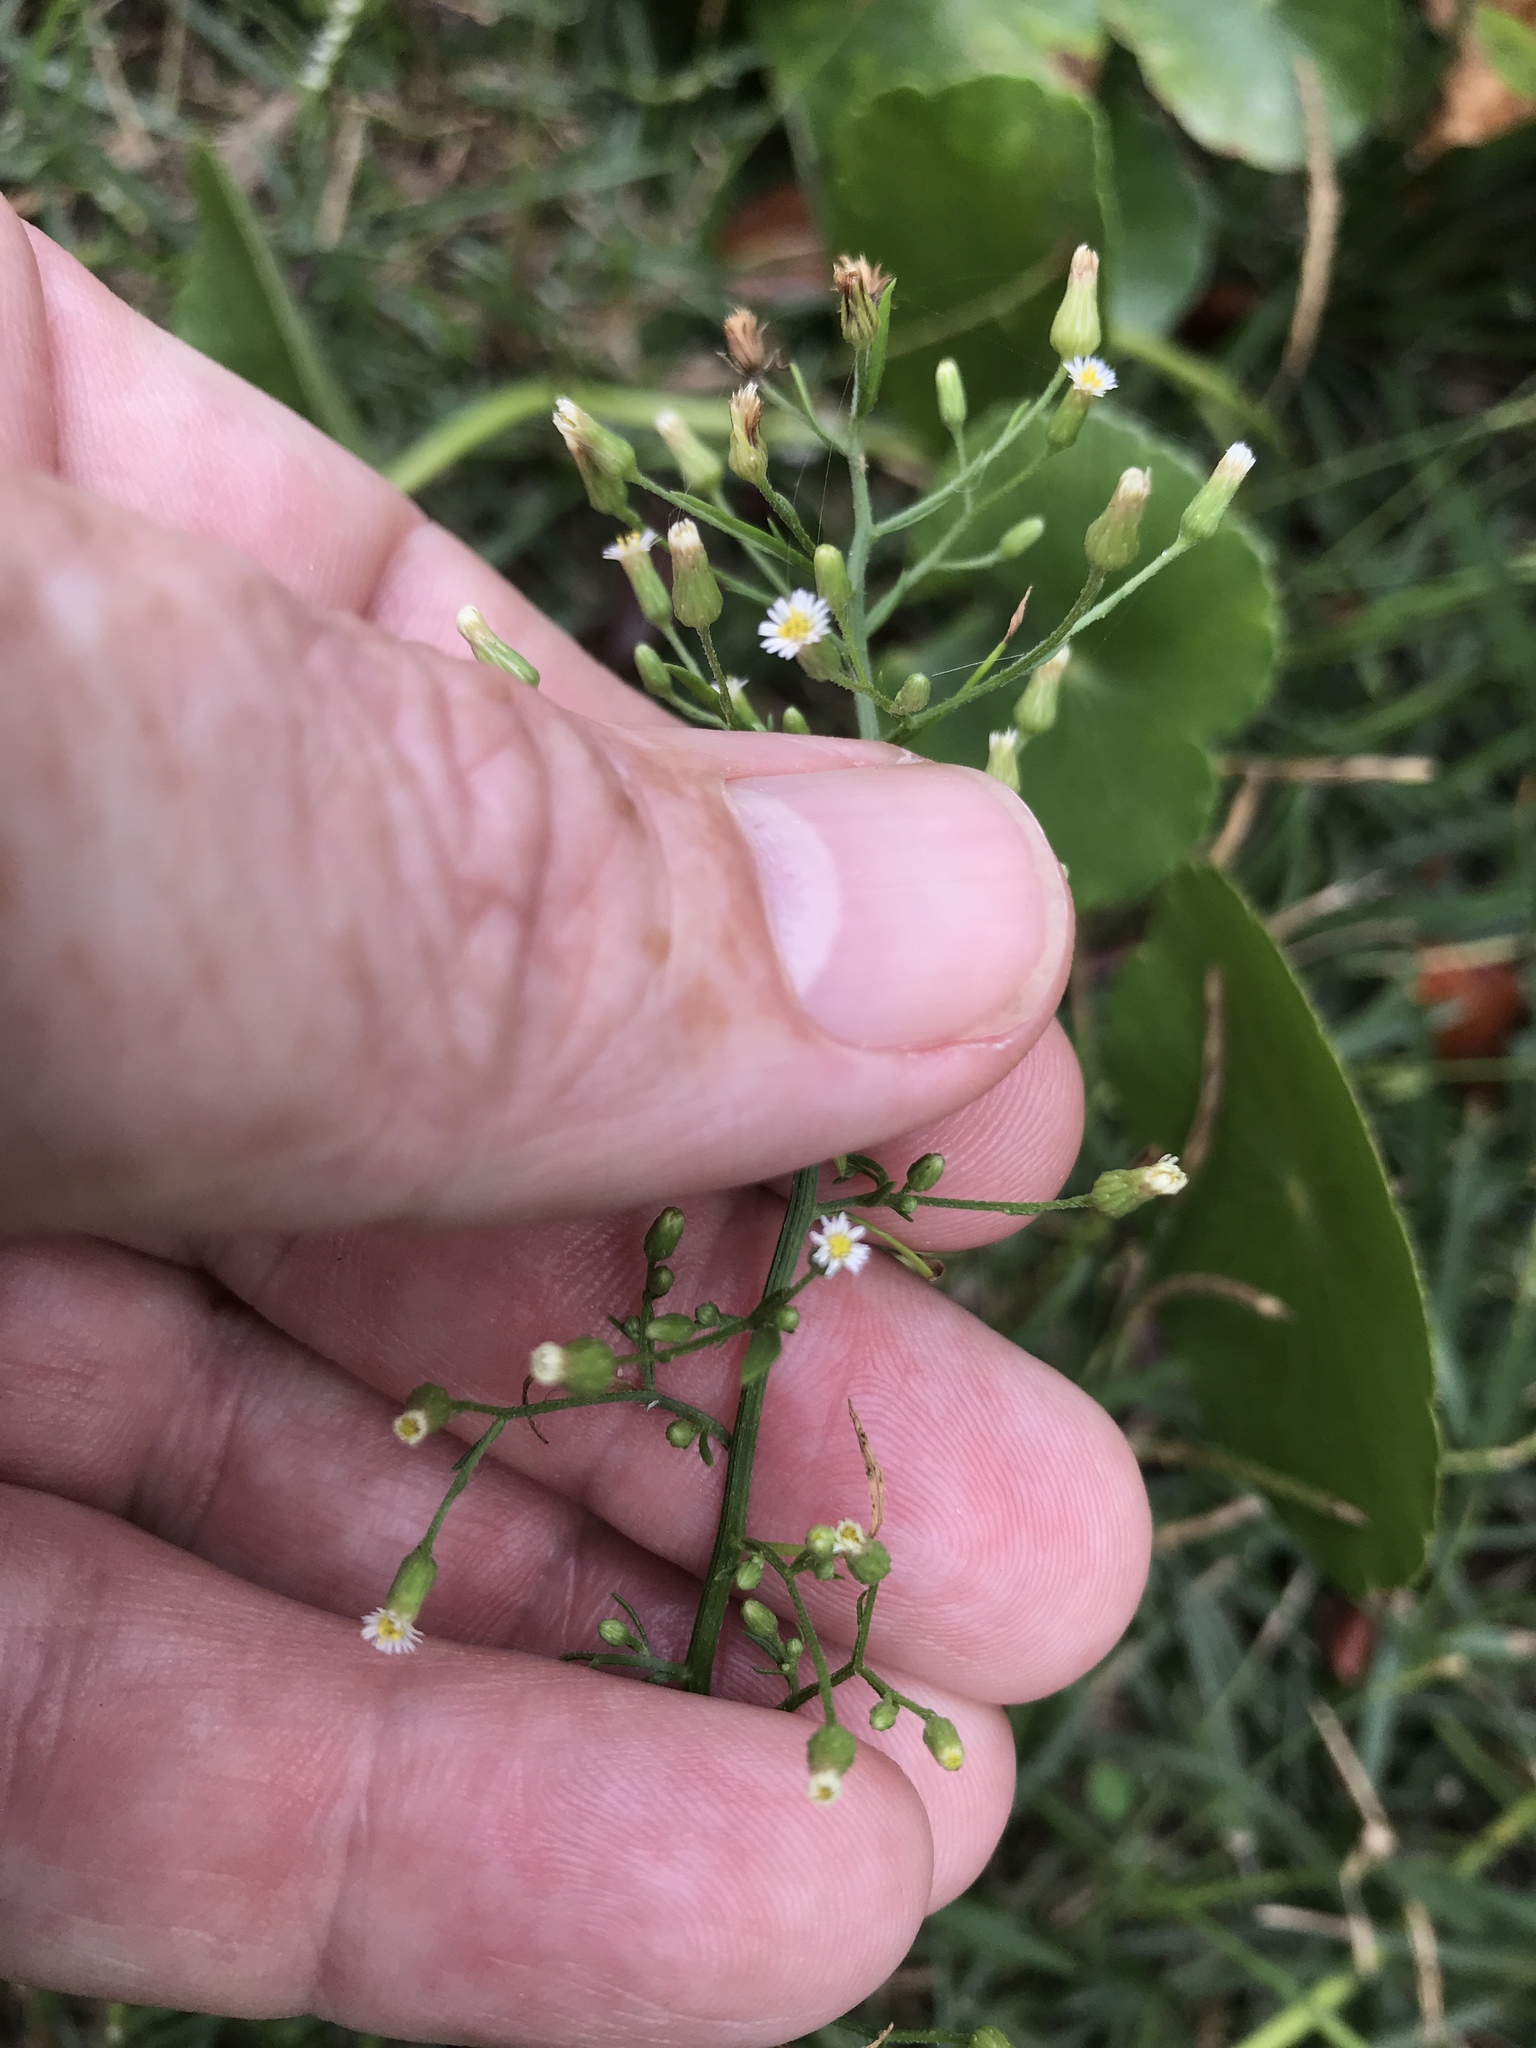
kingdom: Plantae
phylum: Tracheophyta
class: Magnoliopsida
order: Asterales
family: Asteraceae
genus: Erigeron
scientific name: Erigeron canadensis
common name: Canadian fleabane
